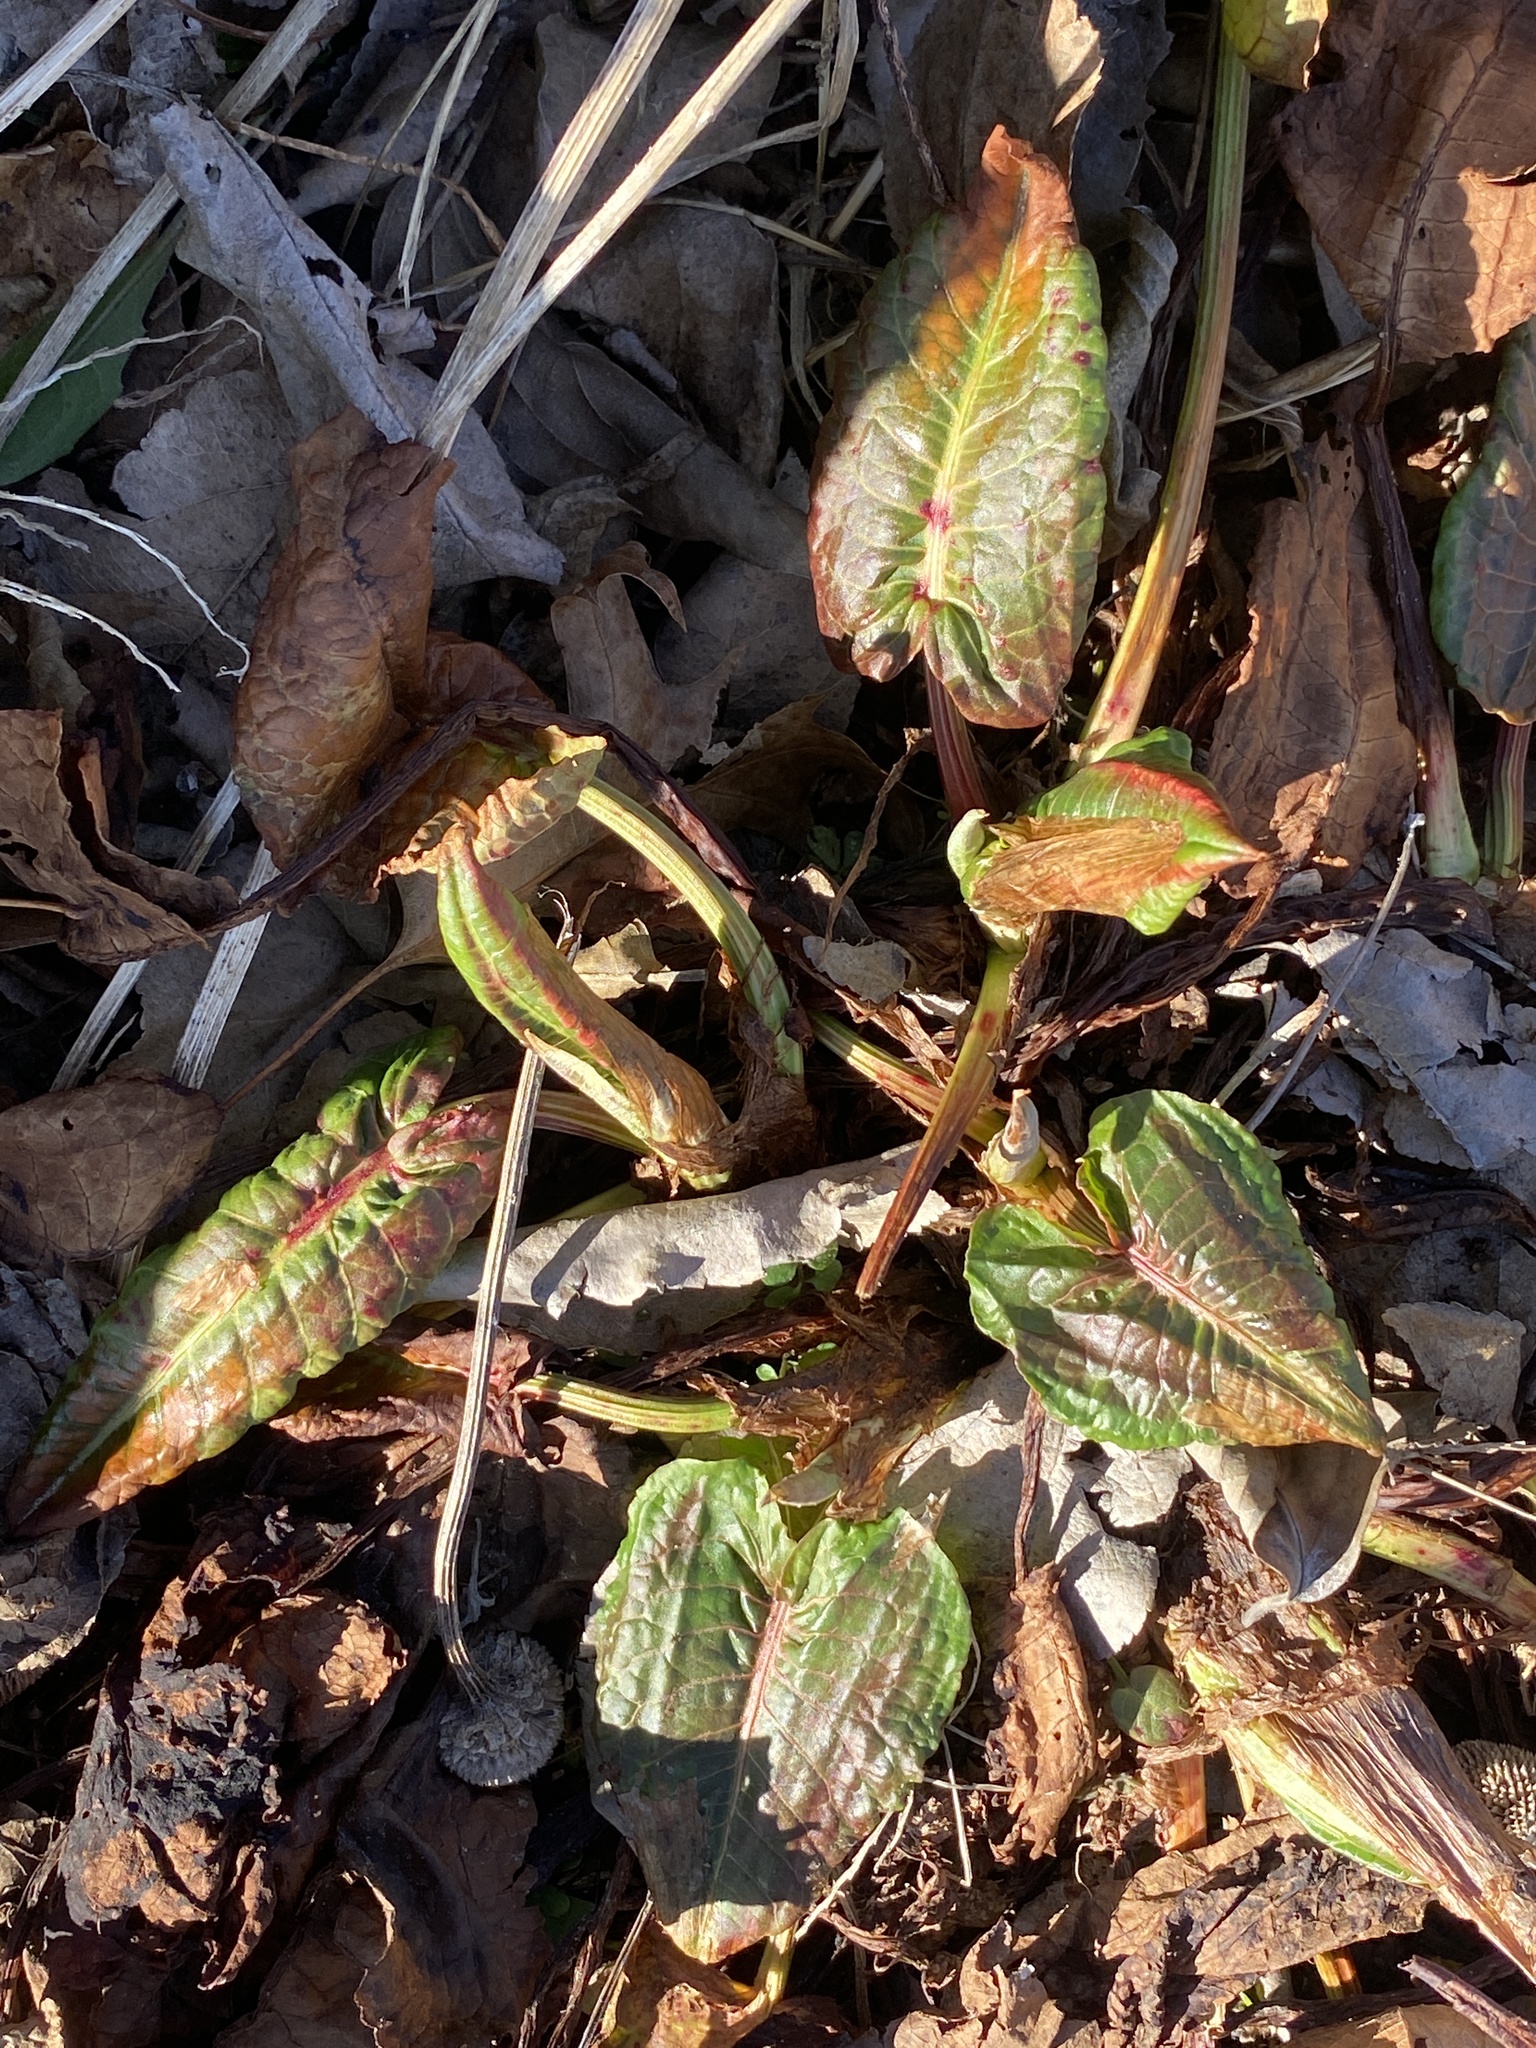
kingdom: Plantae
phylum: Tracheophyta
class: Magnoliopsida
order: Caryophyllales
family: Polygonaceae
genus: Rumex
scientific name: Rumex obtusifolius
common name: Bitter dock
